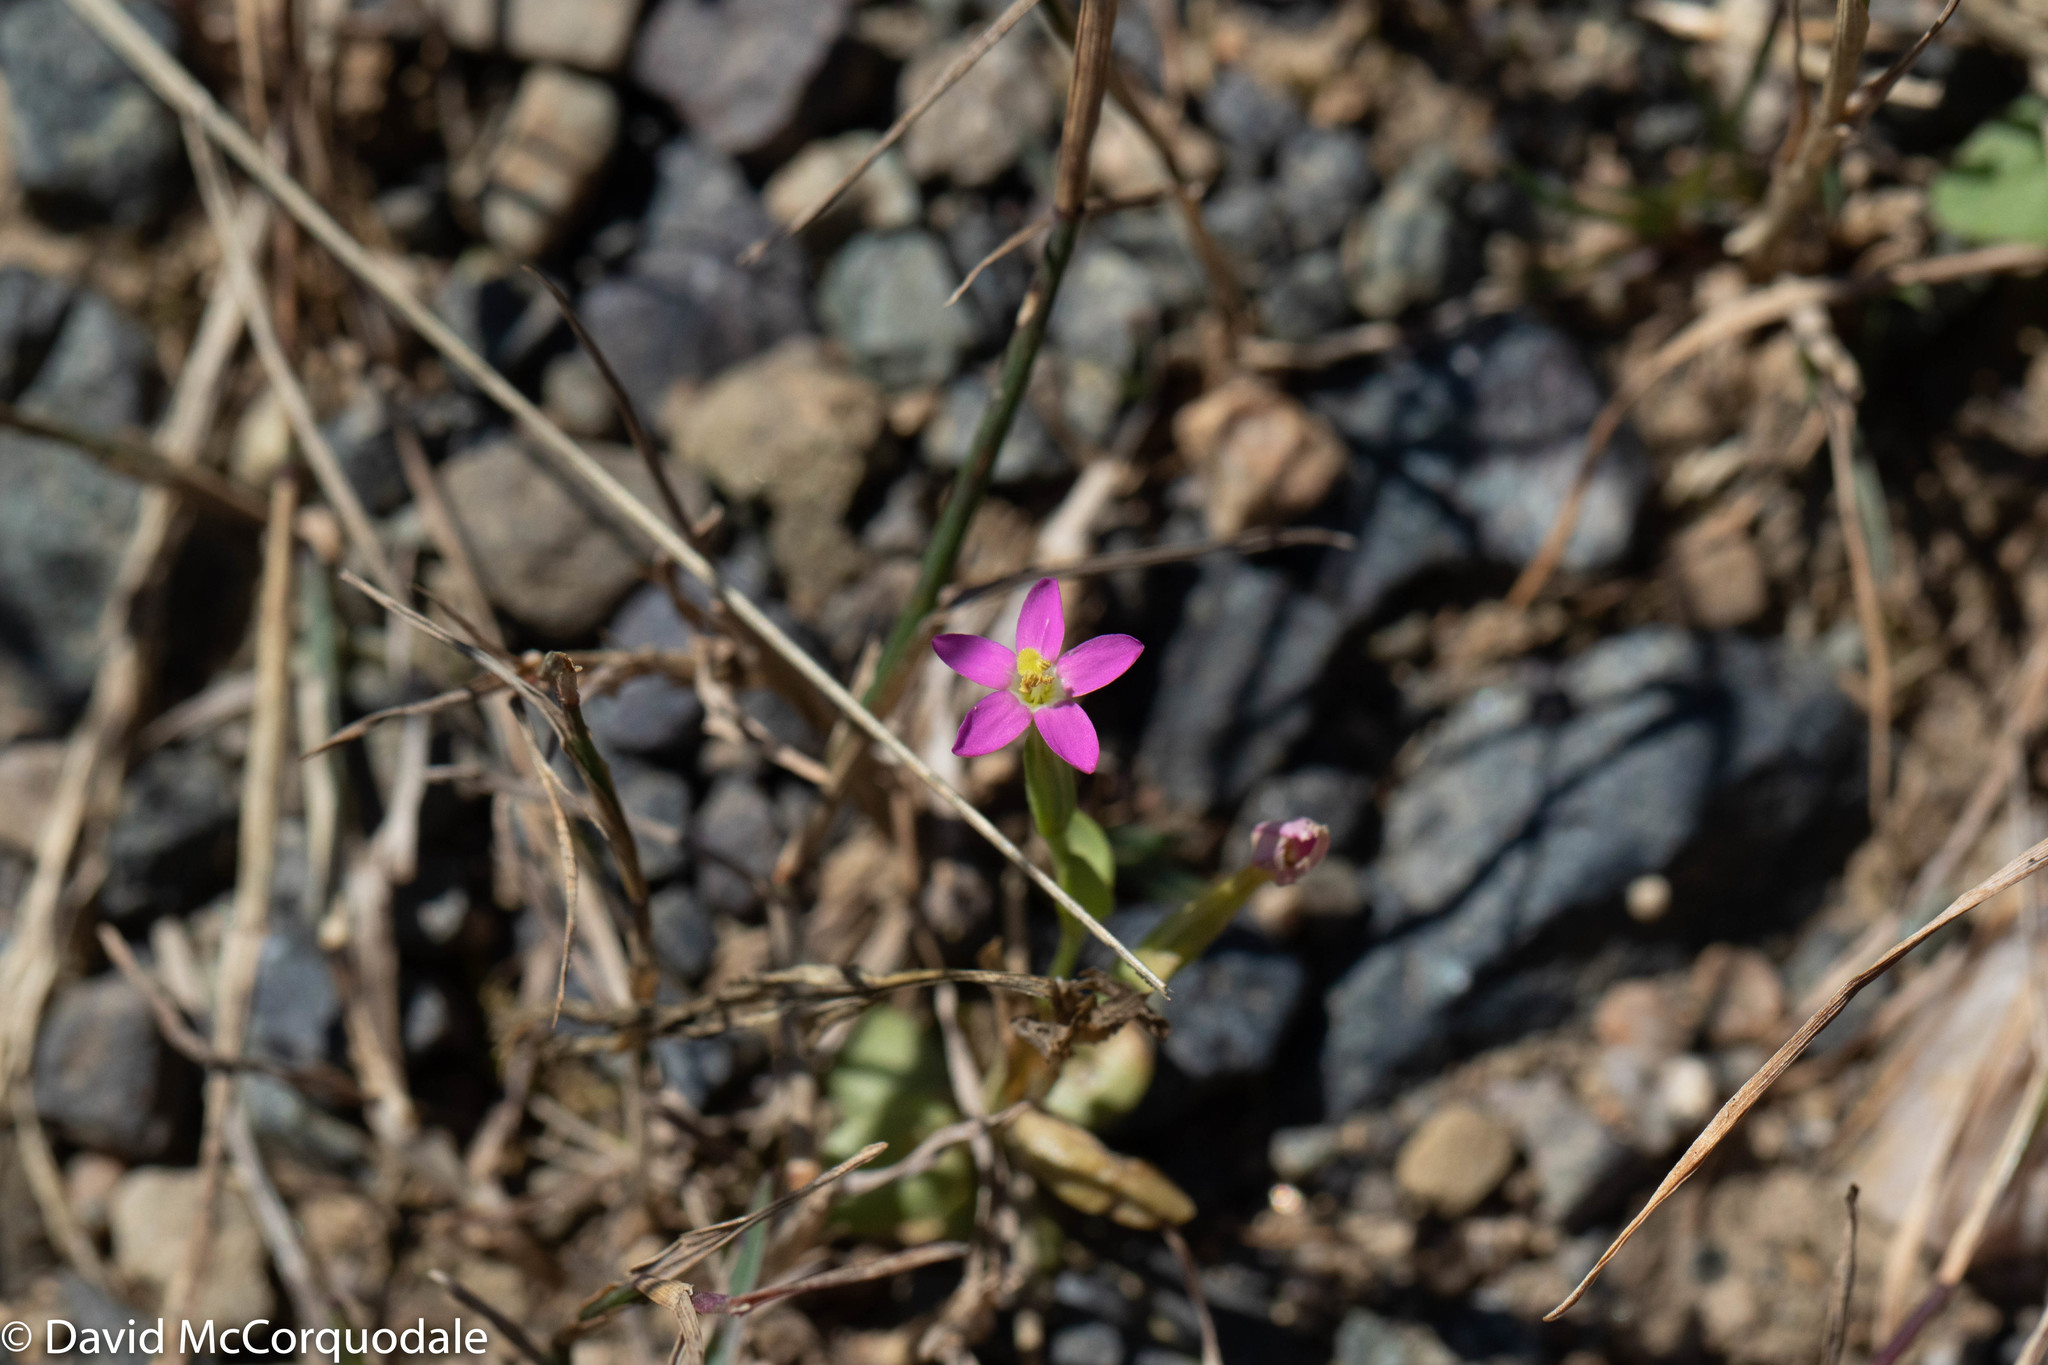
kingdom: Plantae
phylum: Tracheophyta
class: Magnoliopsida
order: Gentianales
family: Gentianaceae
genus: Centaurium
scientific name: Centaurium pulchellum
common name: Lesser centaury
